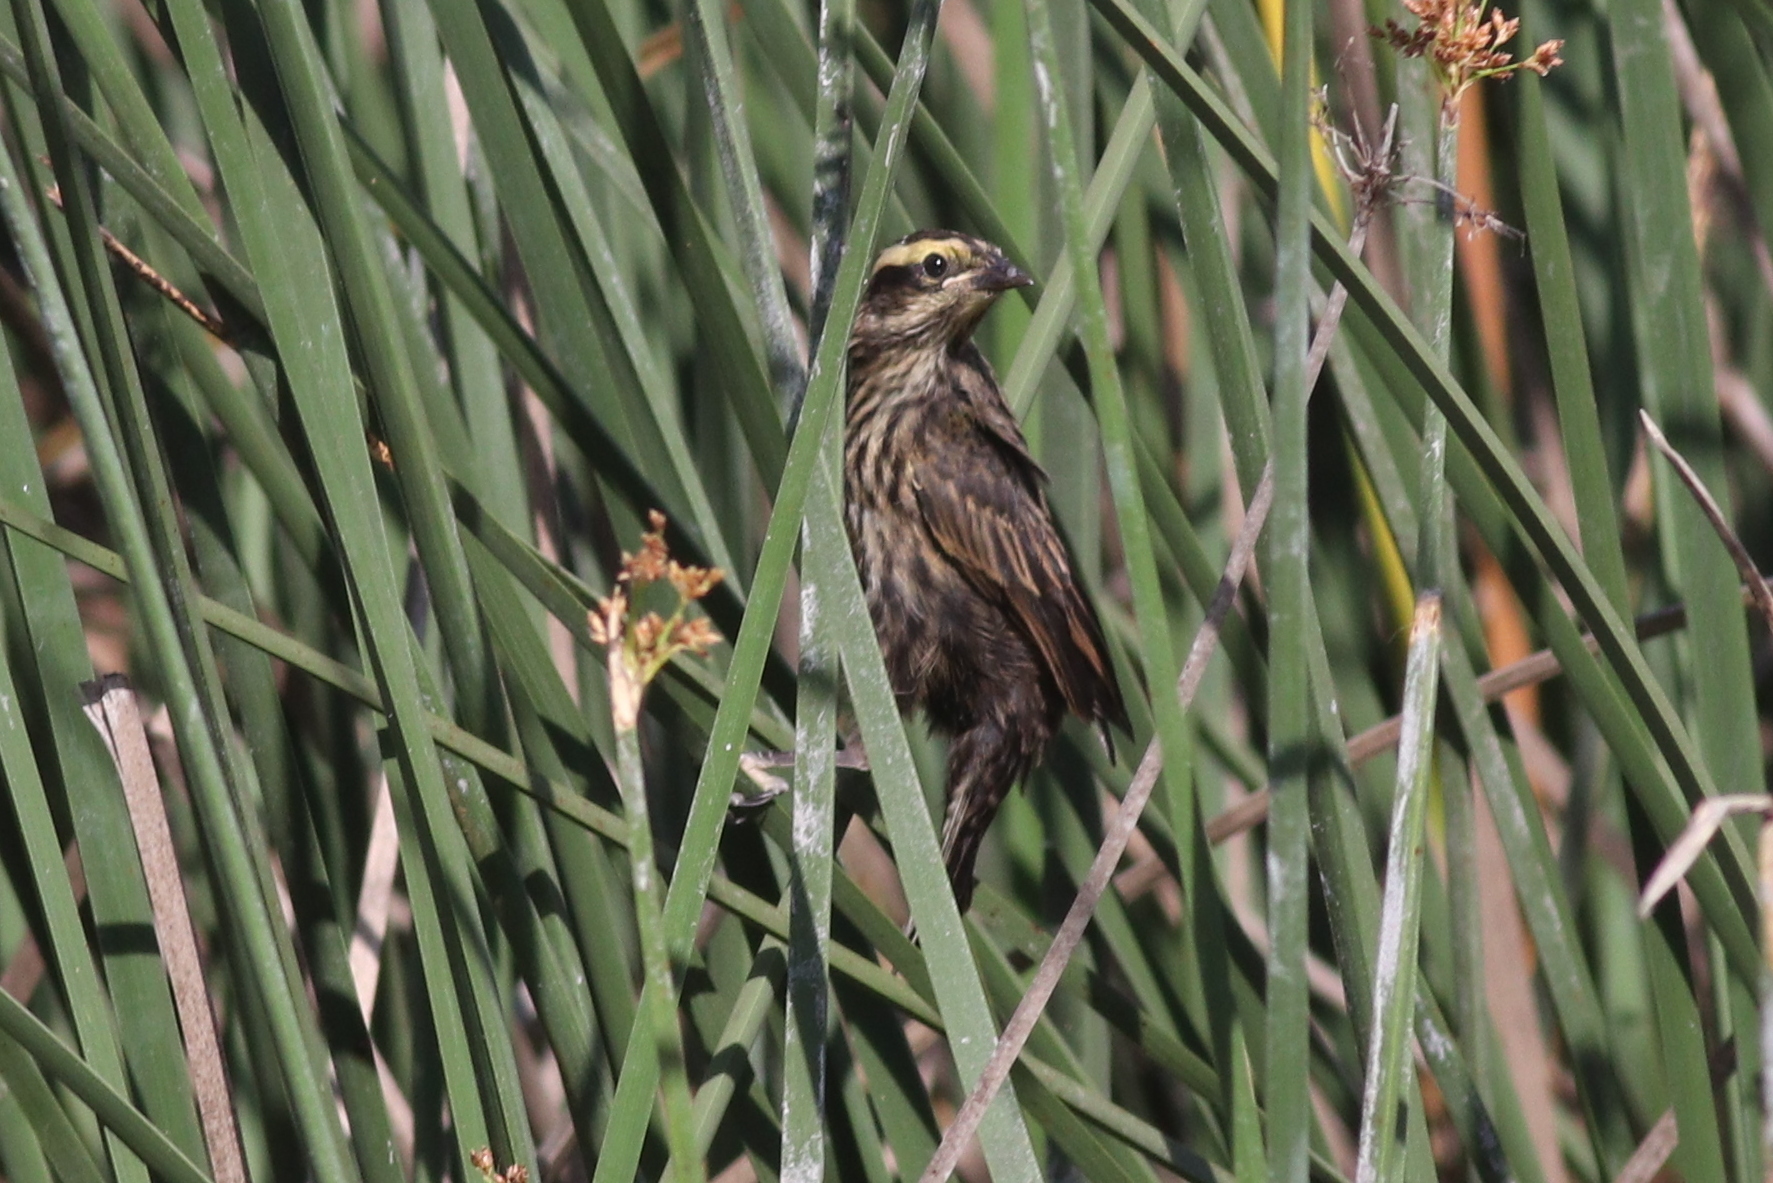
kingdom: Animalia
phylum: Chordata
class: Aves
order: Passeriformes
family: Icteridae
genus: Agelasticus
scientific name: Agelasticus thilius
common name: Yellow-winged blackbird
